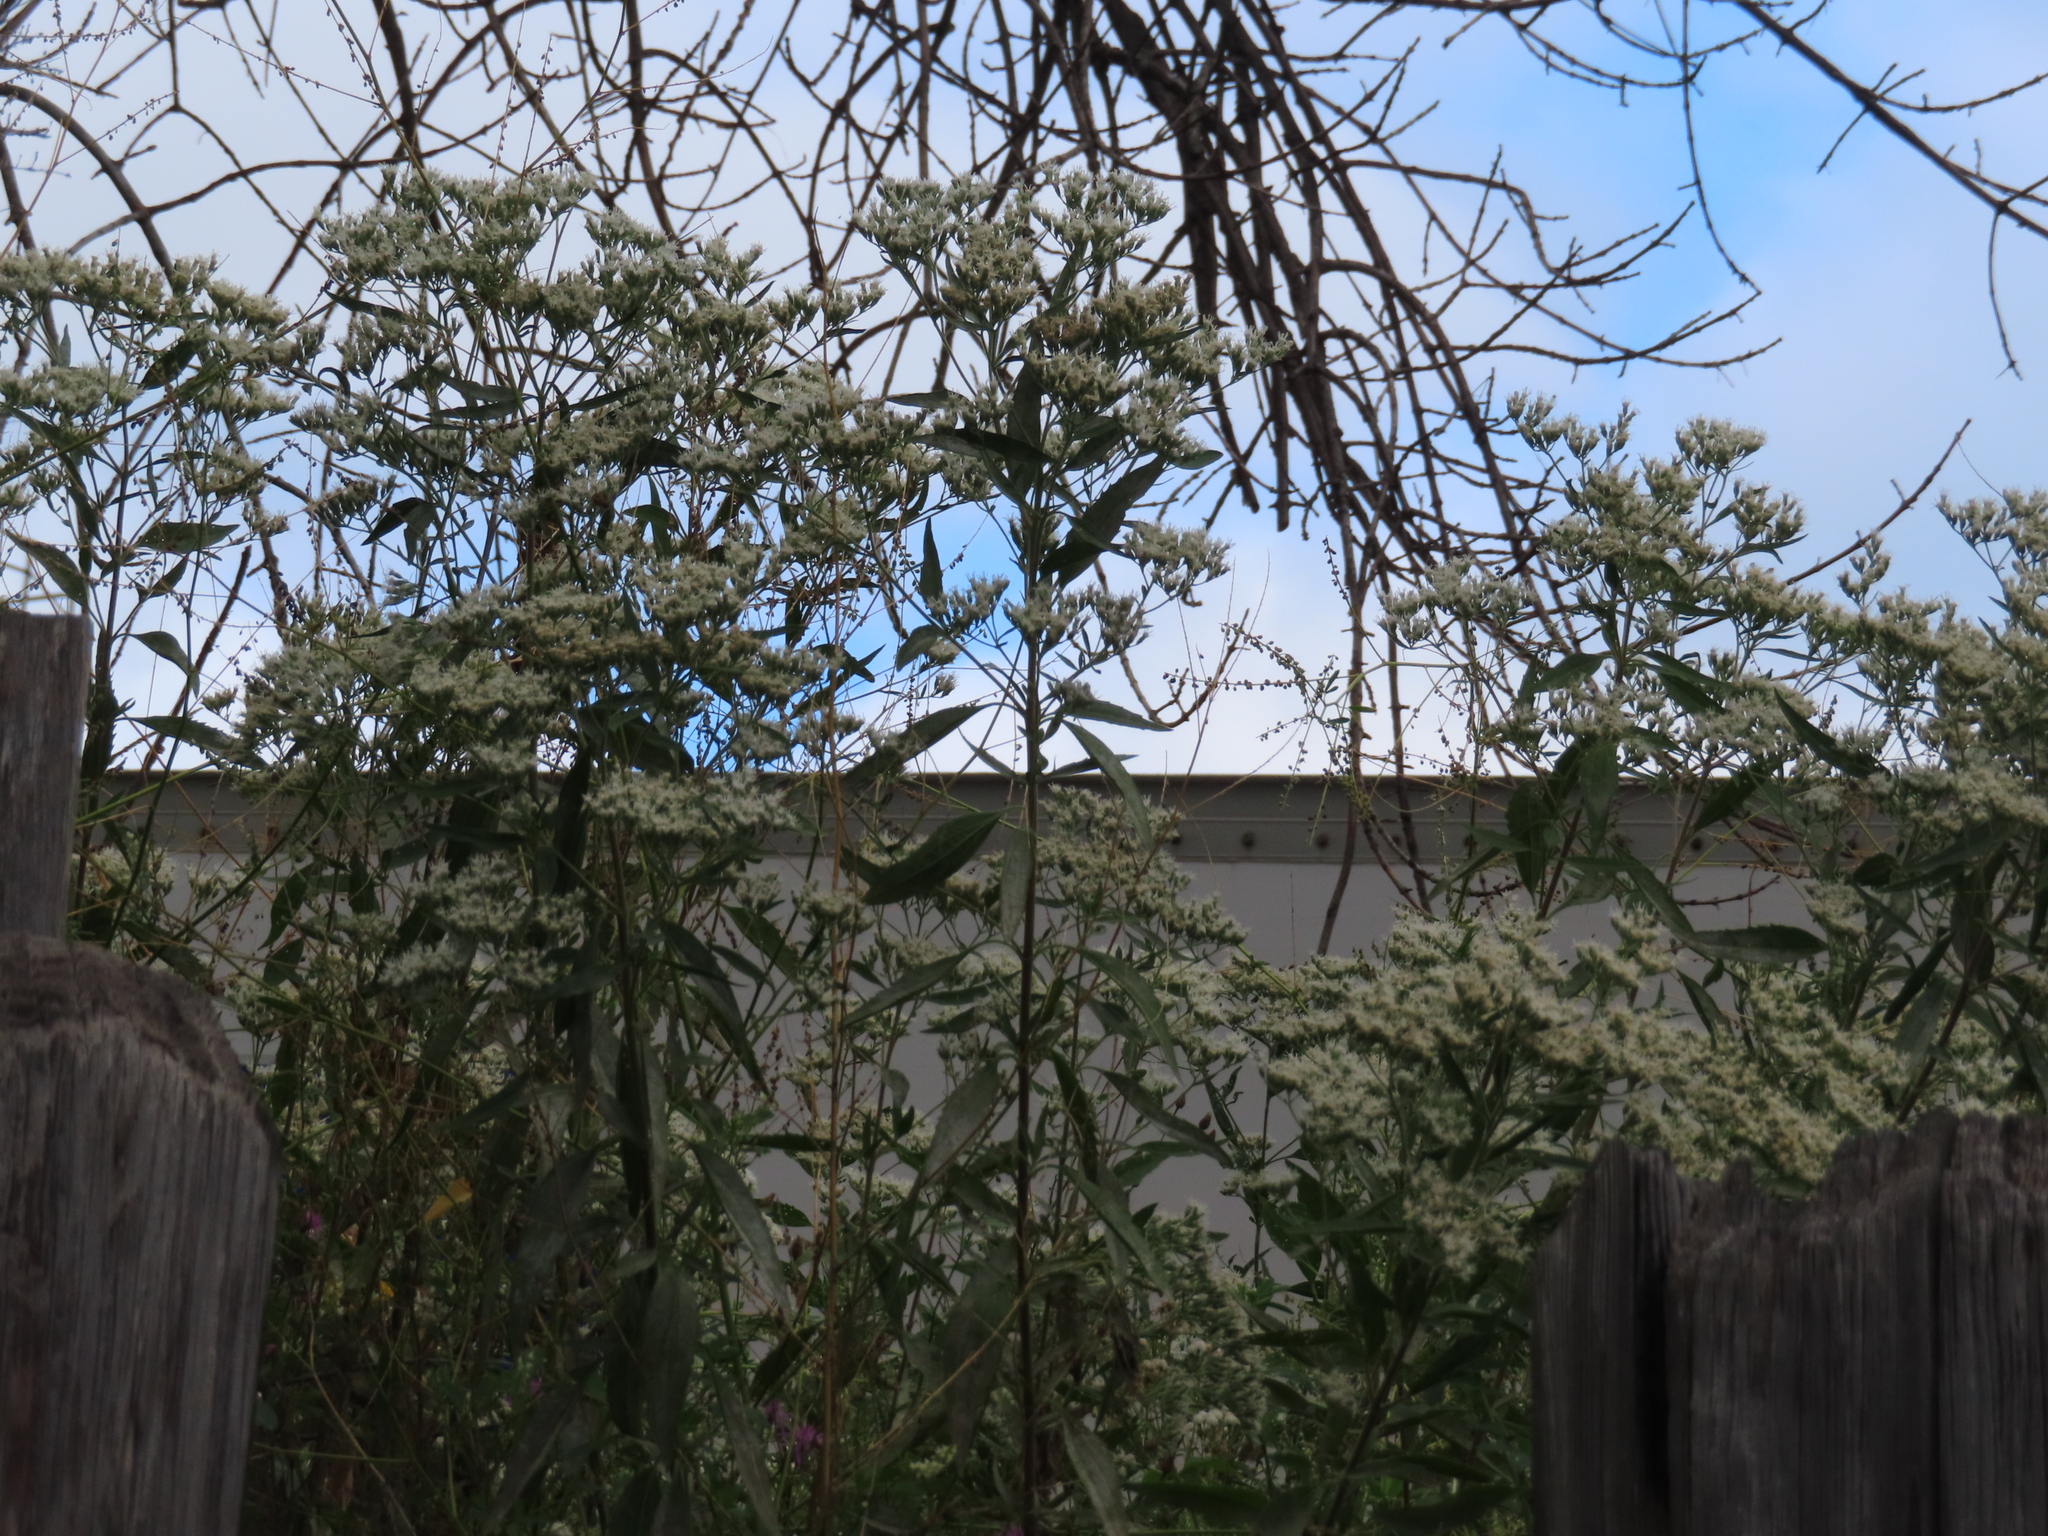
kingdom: Plantae
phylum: Tracheophyta
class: Magnoliopsida
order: Asterales
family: Asteraceae
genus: Eupatorium
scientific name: Eupatorium serotinum
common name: Late boneset
